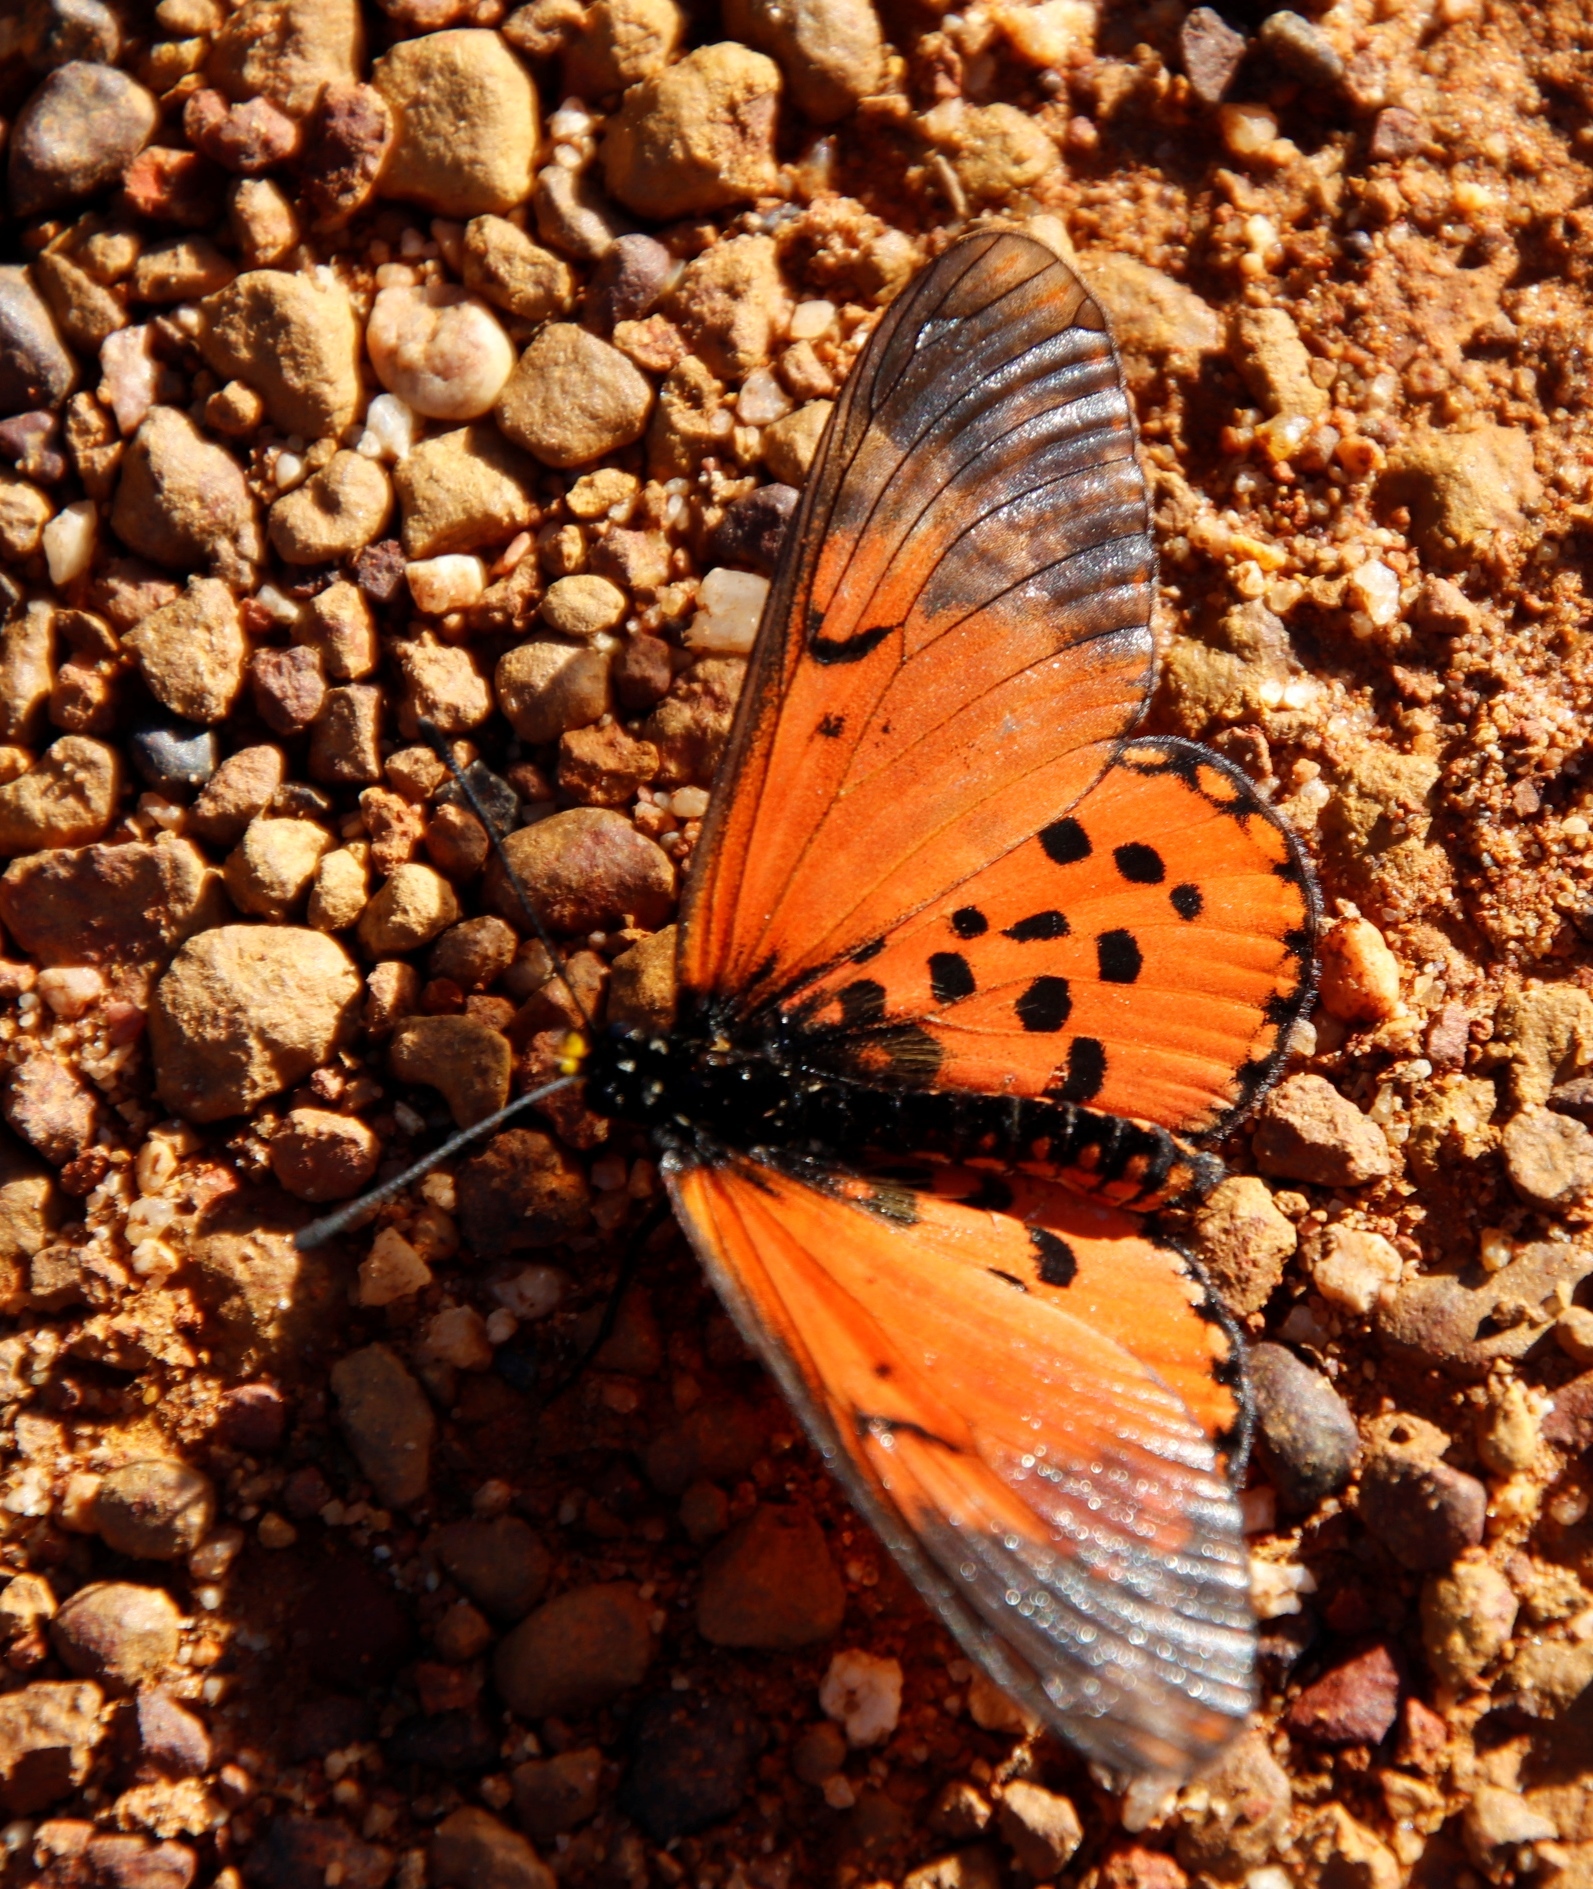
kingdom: Animalia
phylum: Arthropoda
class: Insecta
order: Lepidoptera
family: Nymphalidae
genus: Acraea
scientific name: Acraea horta
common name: Garden acraea
